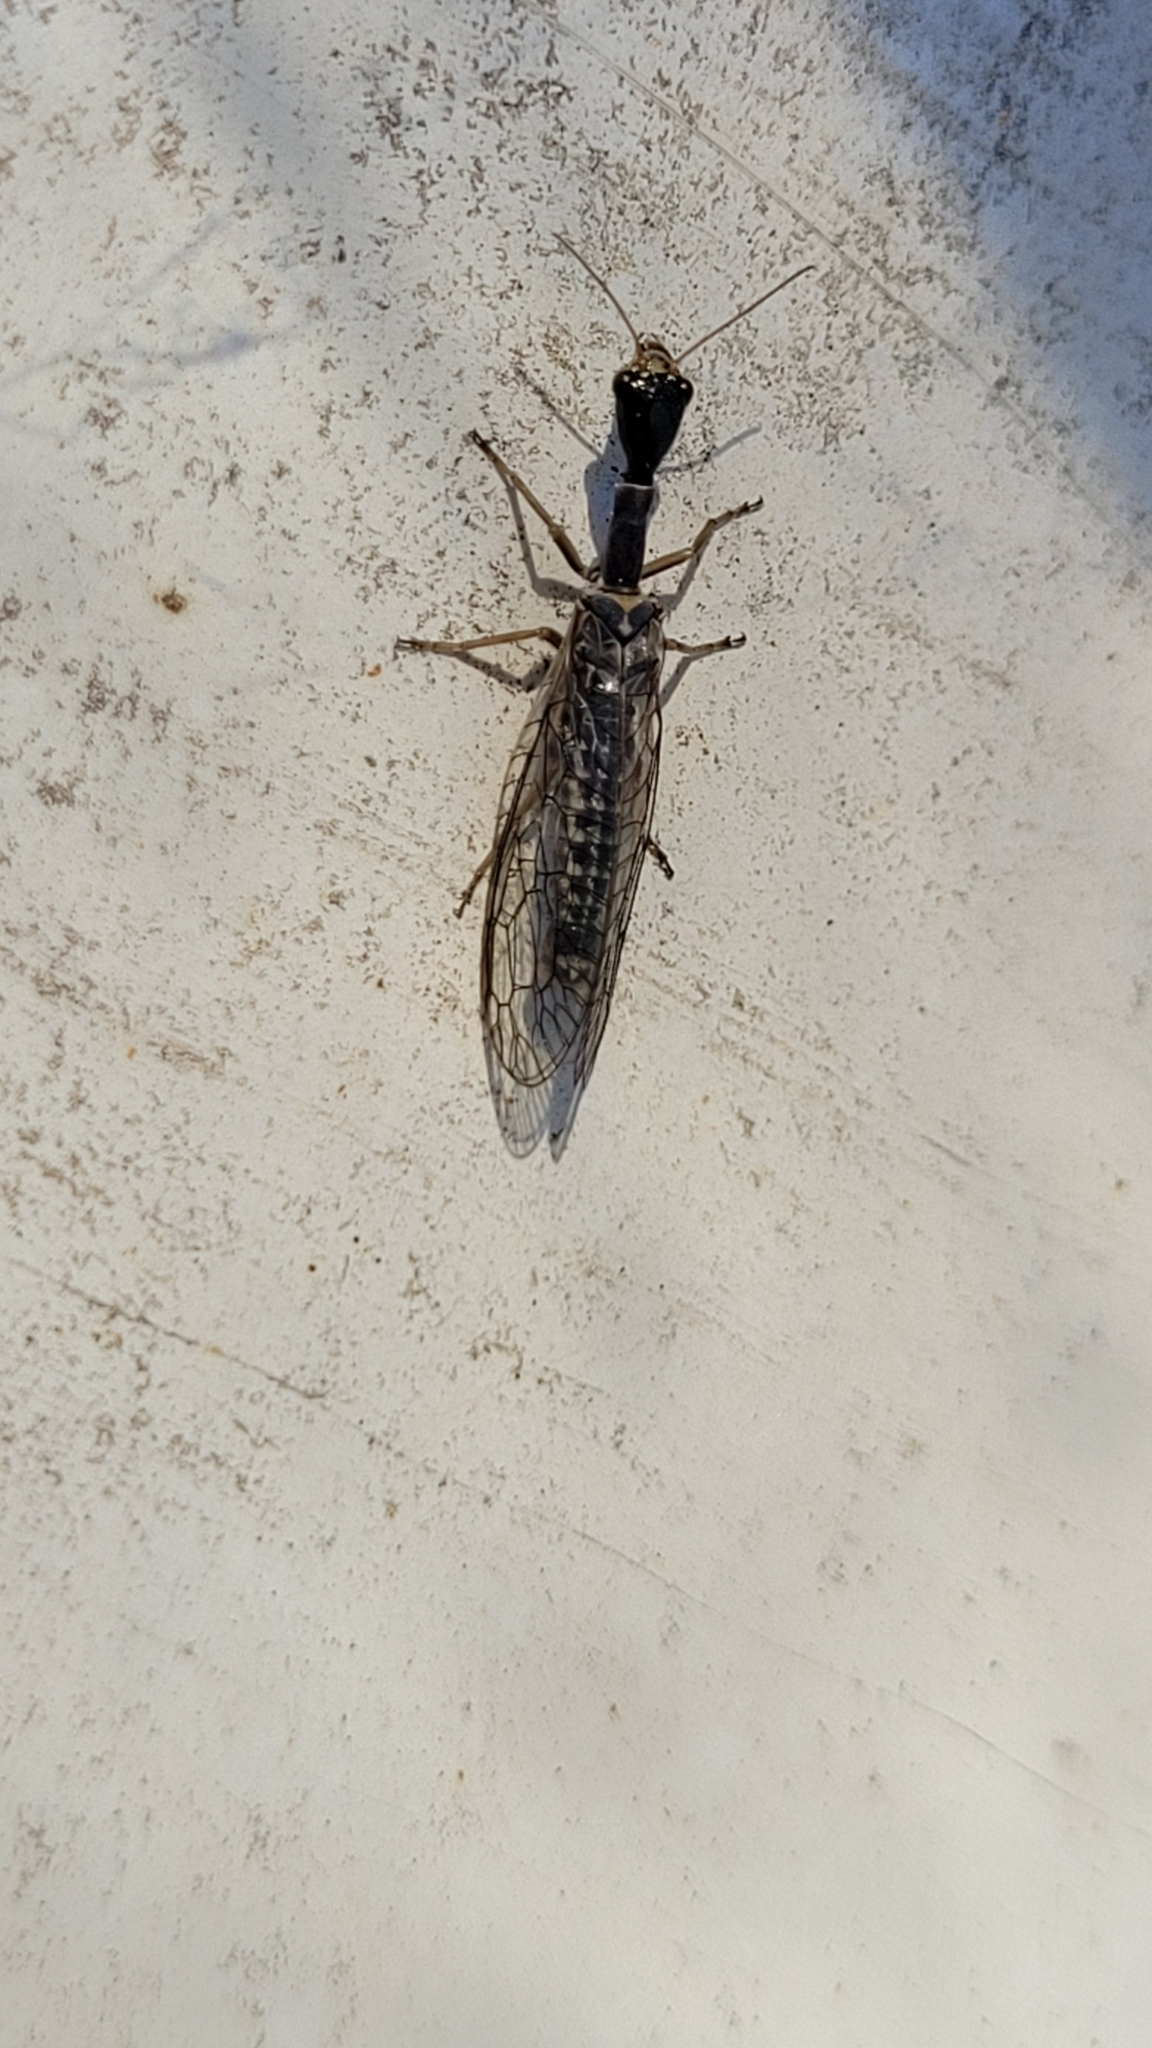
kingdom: Animalia
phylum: Arthropoda
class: Insecta
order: Raphidioptera
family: Raphidiidae
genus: Xanthostigma
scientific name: Xanthostigma xanthostigma
